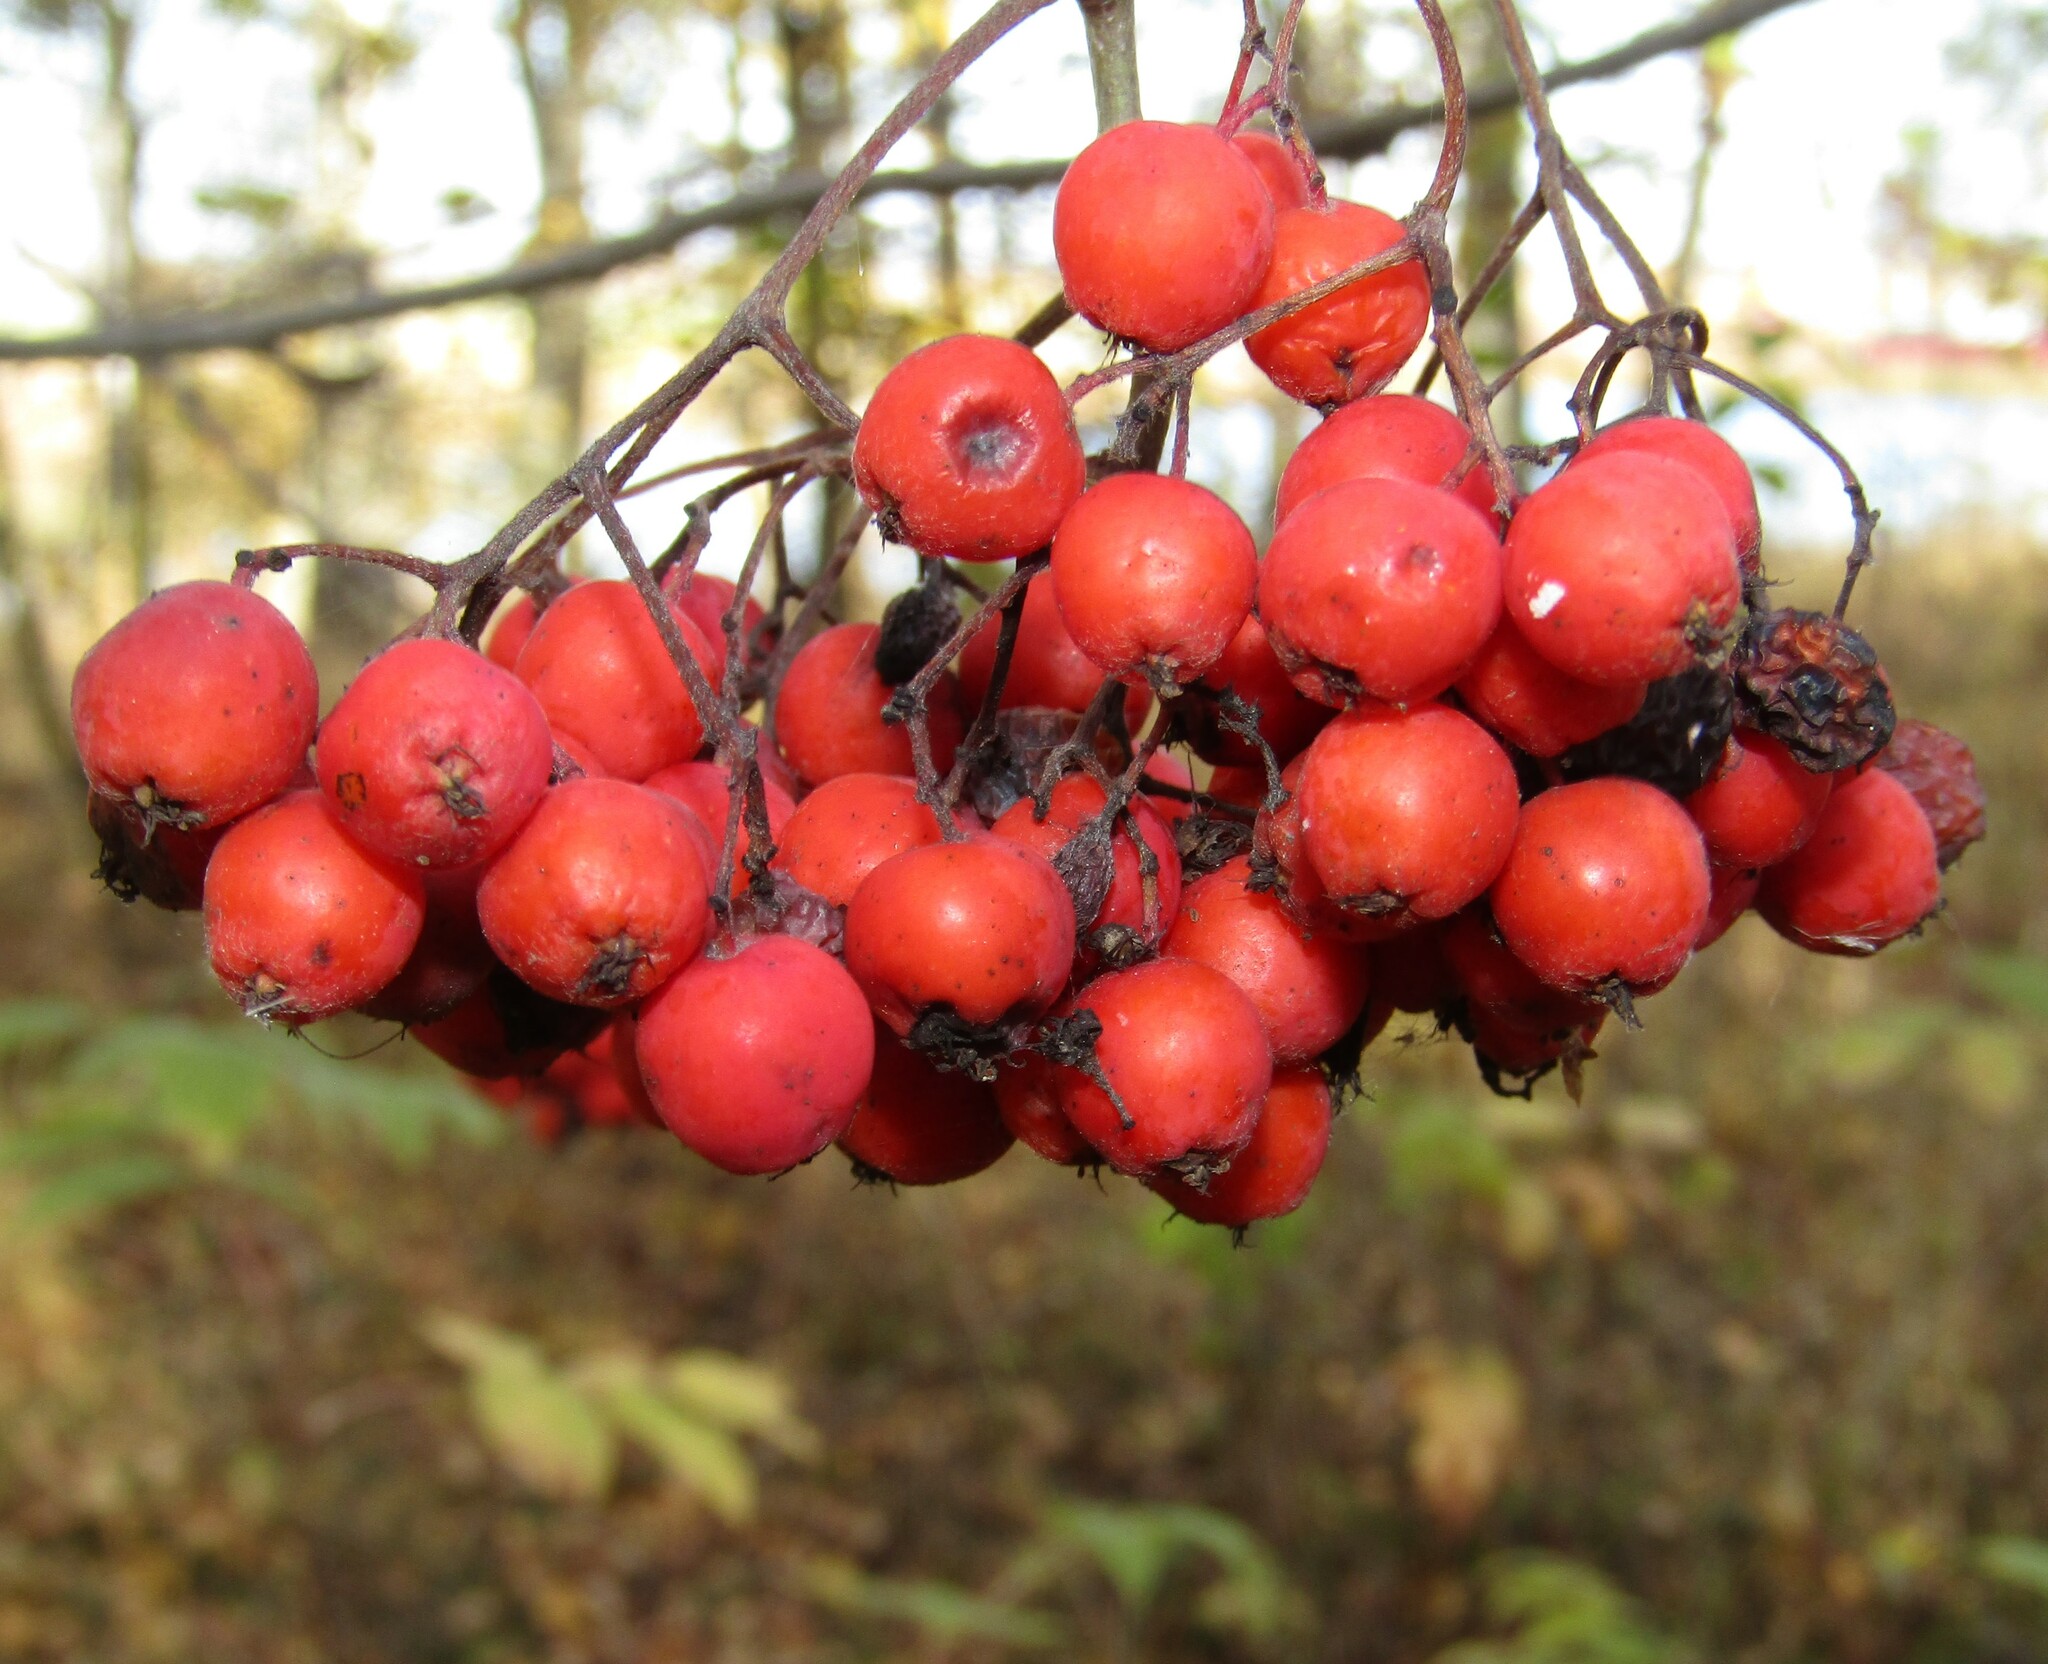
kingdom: Plantae
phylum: Tracheophyta
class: Magnoliopsida
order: Rosales
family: Rosaceae
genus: Sorbus
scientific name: Sorbus aucuparia
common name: Rowan
